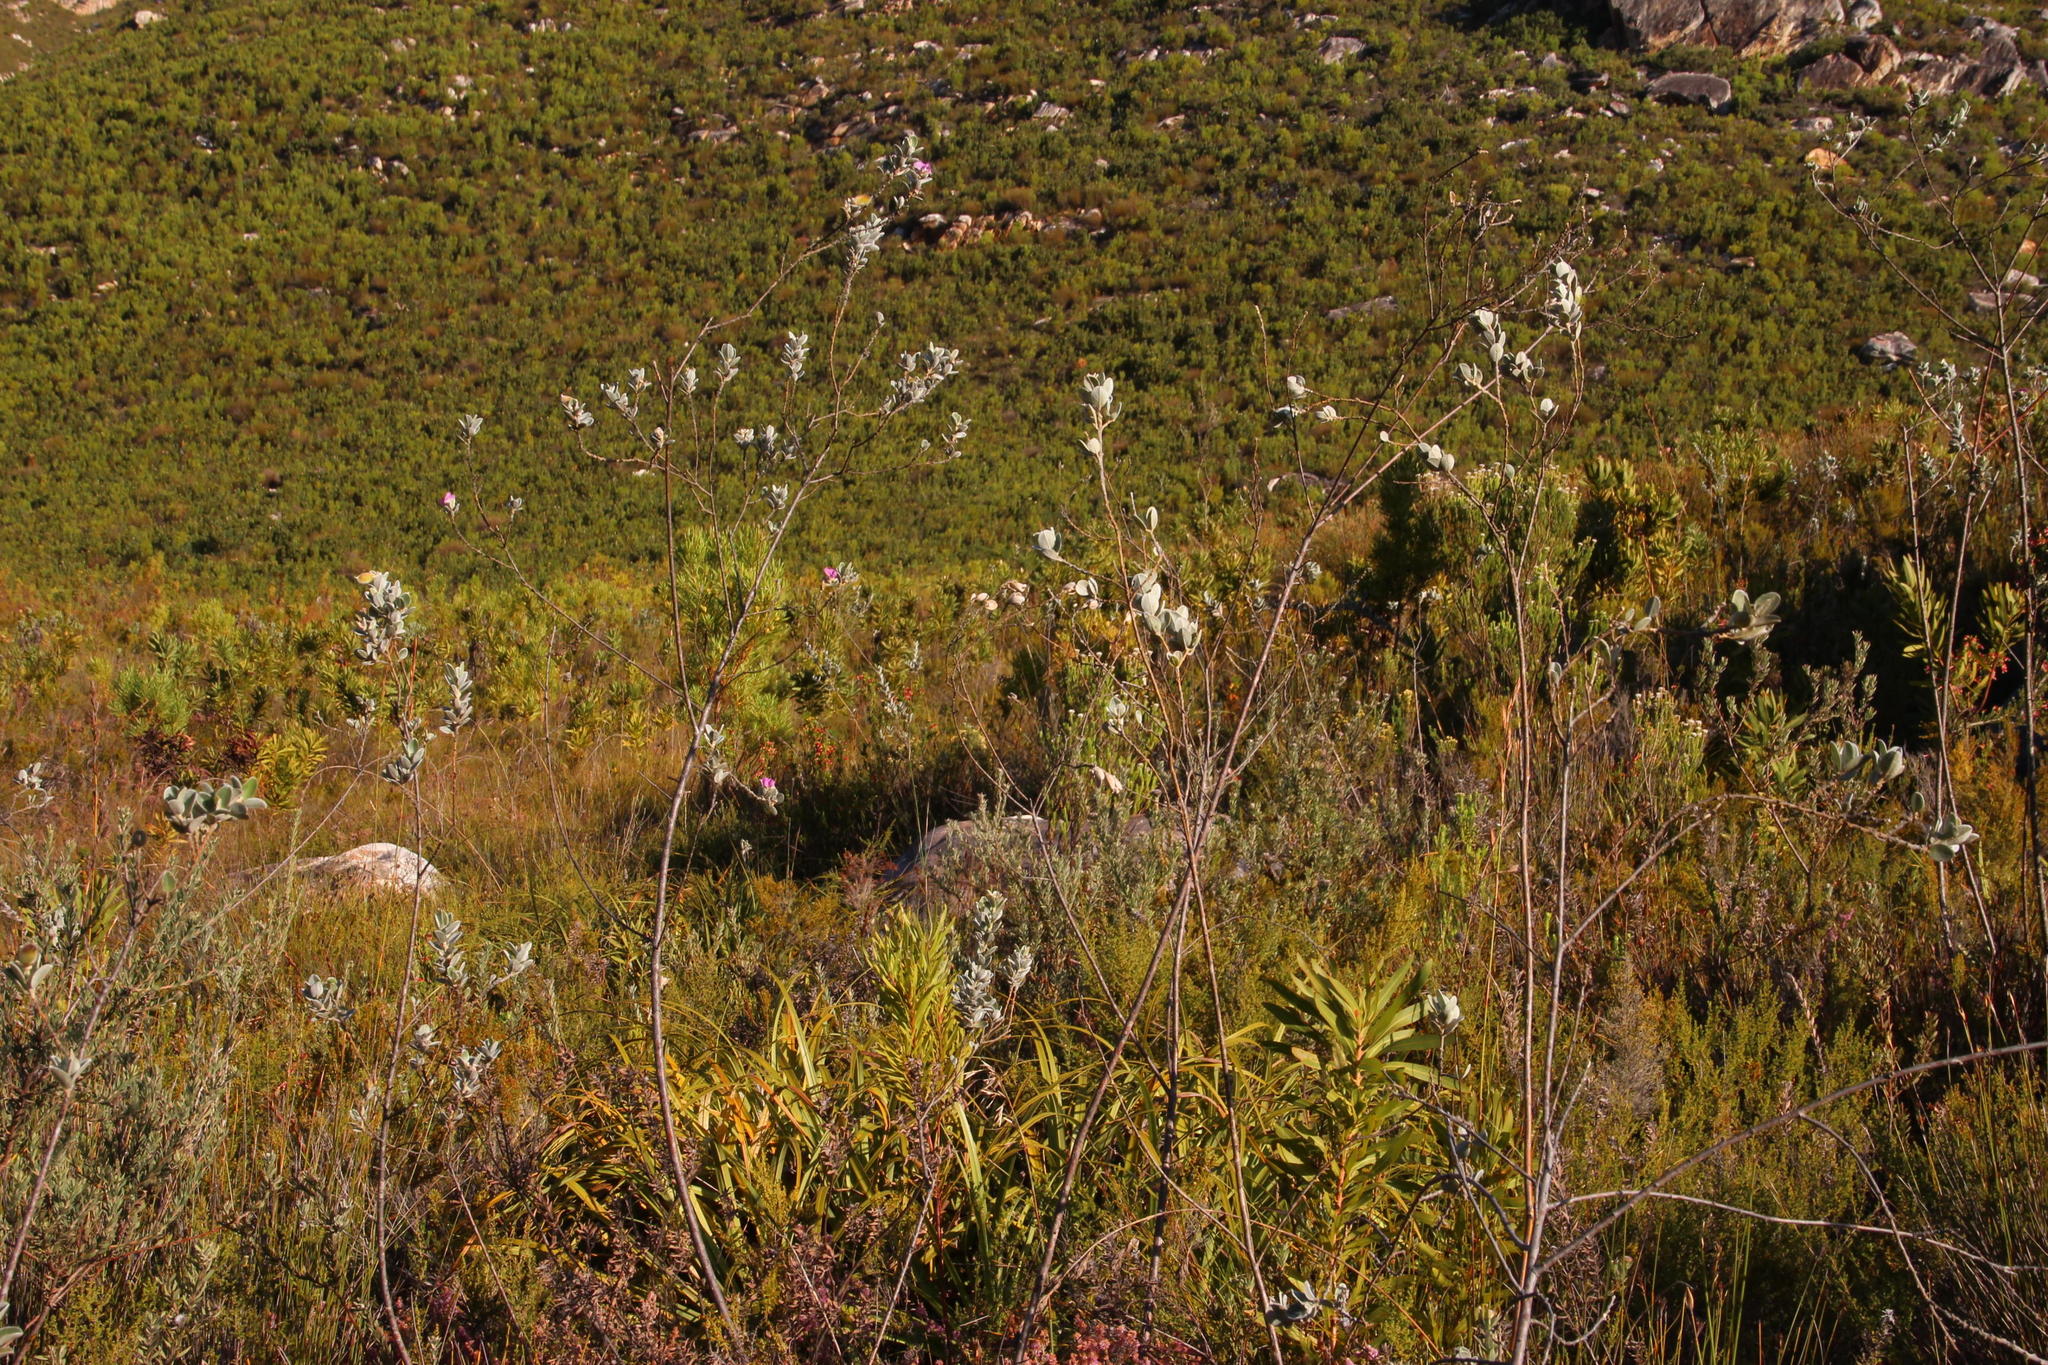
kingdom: Plantae
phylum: Tracheophyta
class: Magnoliopsida
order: Fabales
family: Fabaceae
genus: Podalyria
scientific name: Podalyria burchellii
